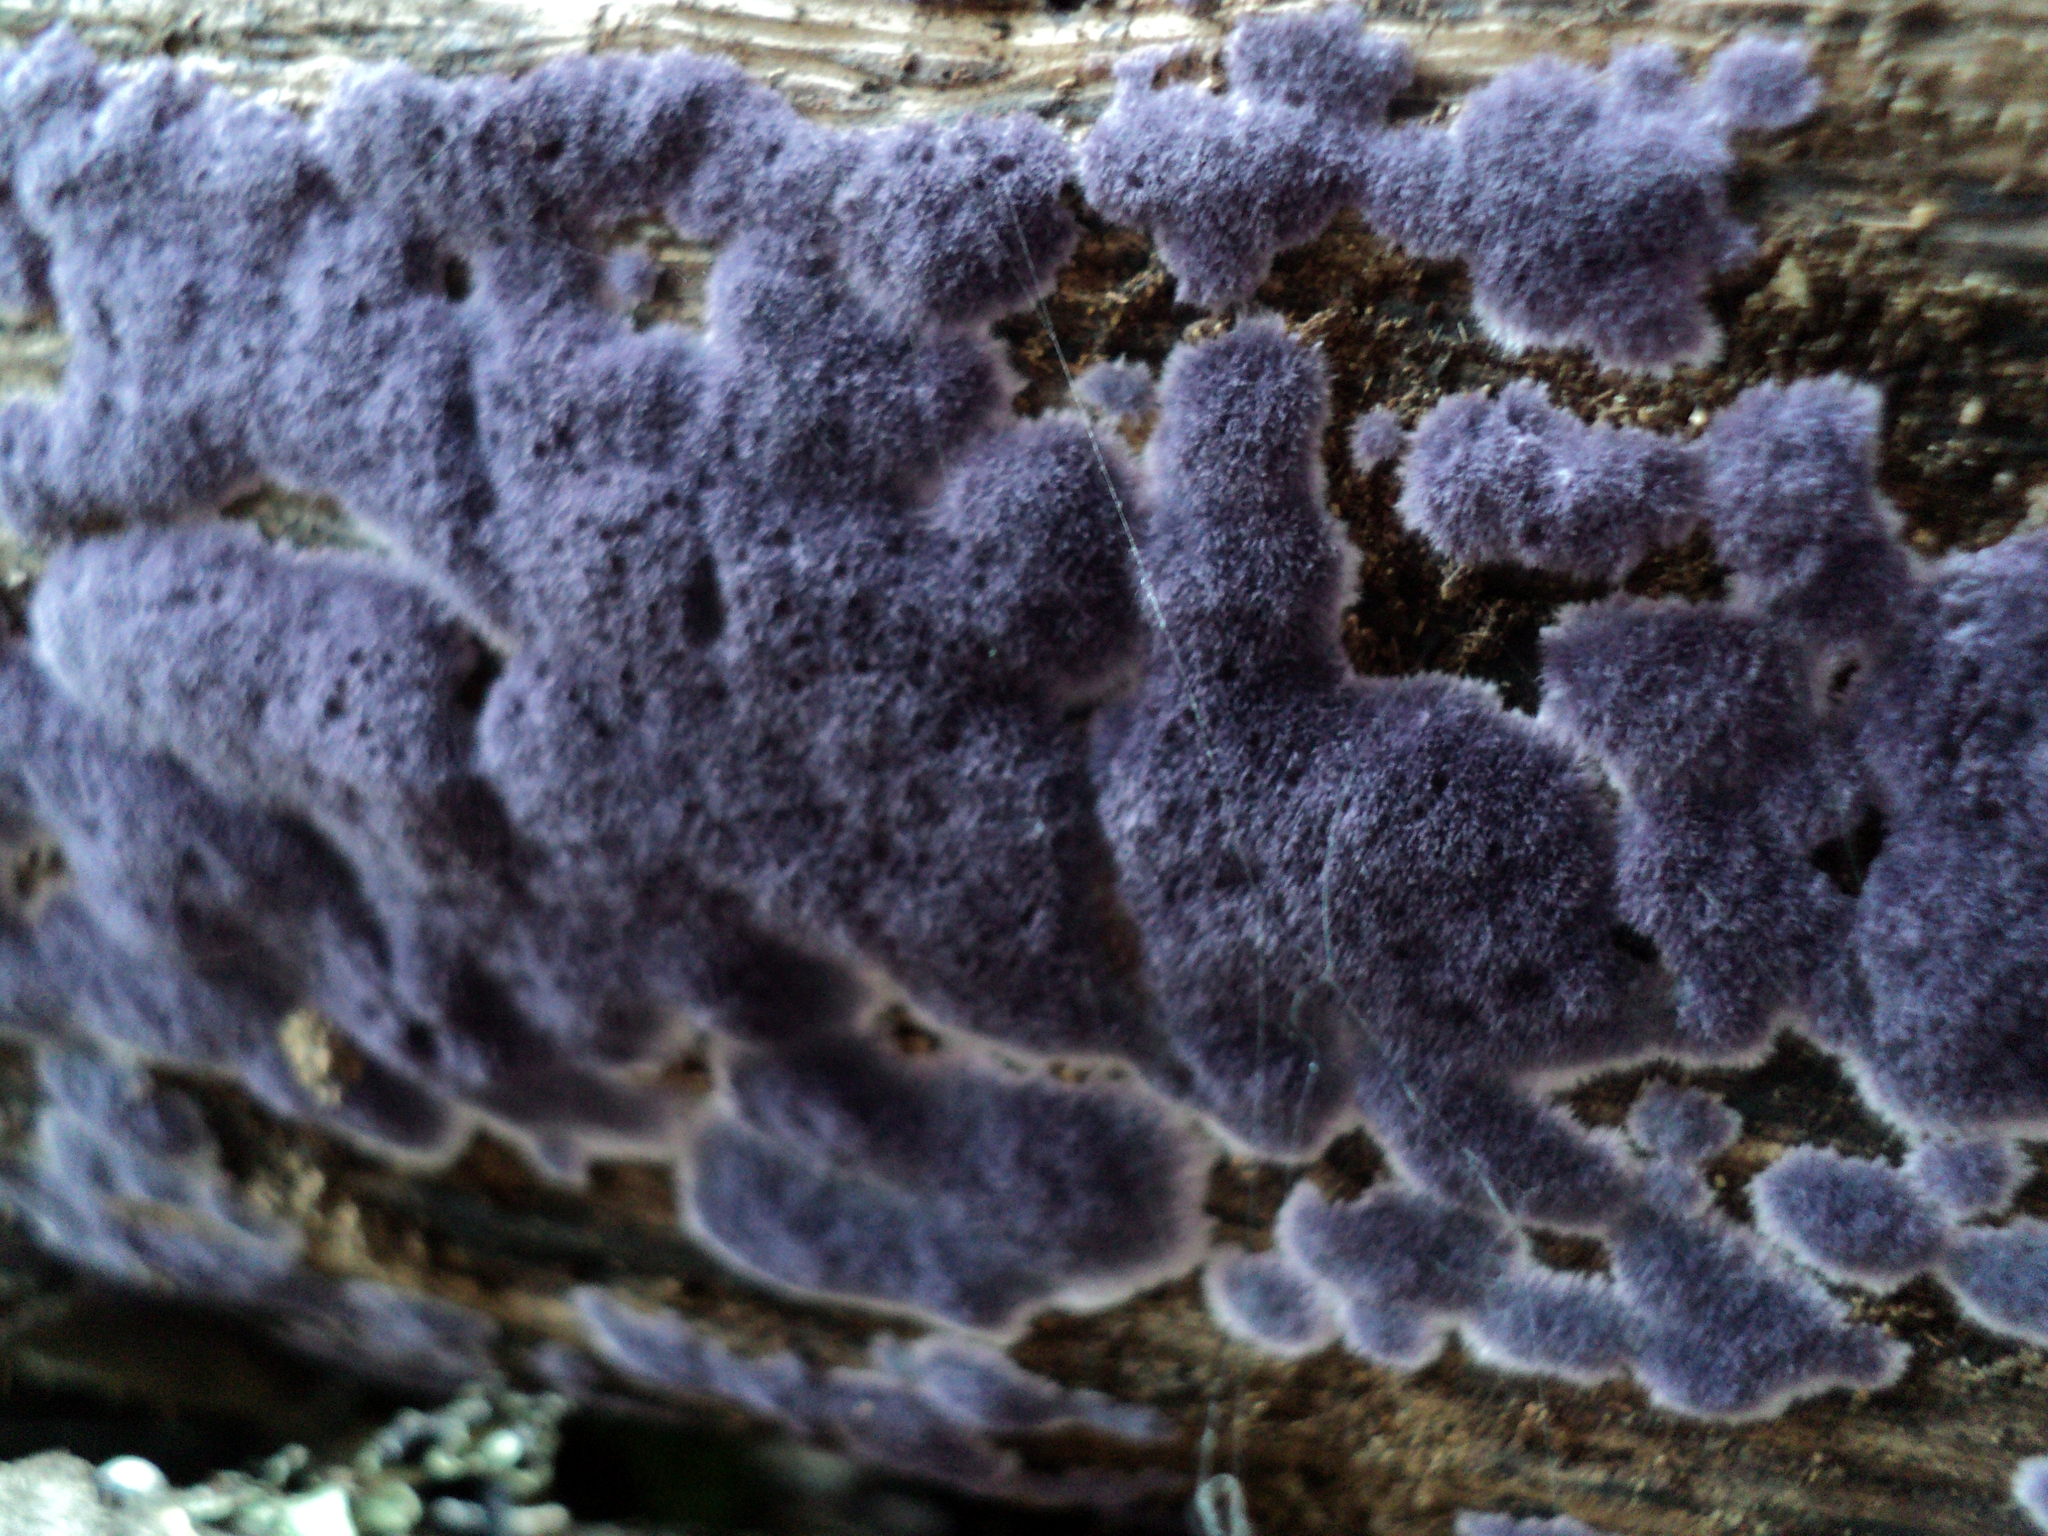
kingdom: Fungi
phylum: Basidiomycota
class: Agaricomycetes
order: Corticiales
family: Punctulariaceae
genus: Punctularia
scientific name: Punctularia atropurpurascens
